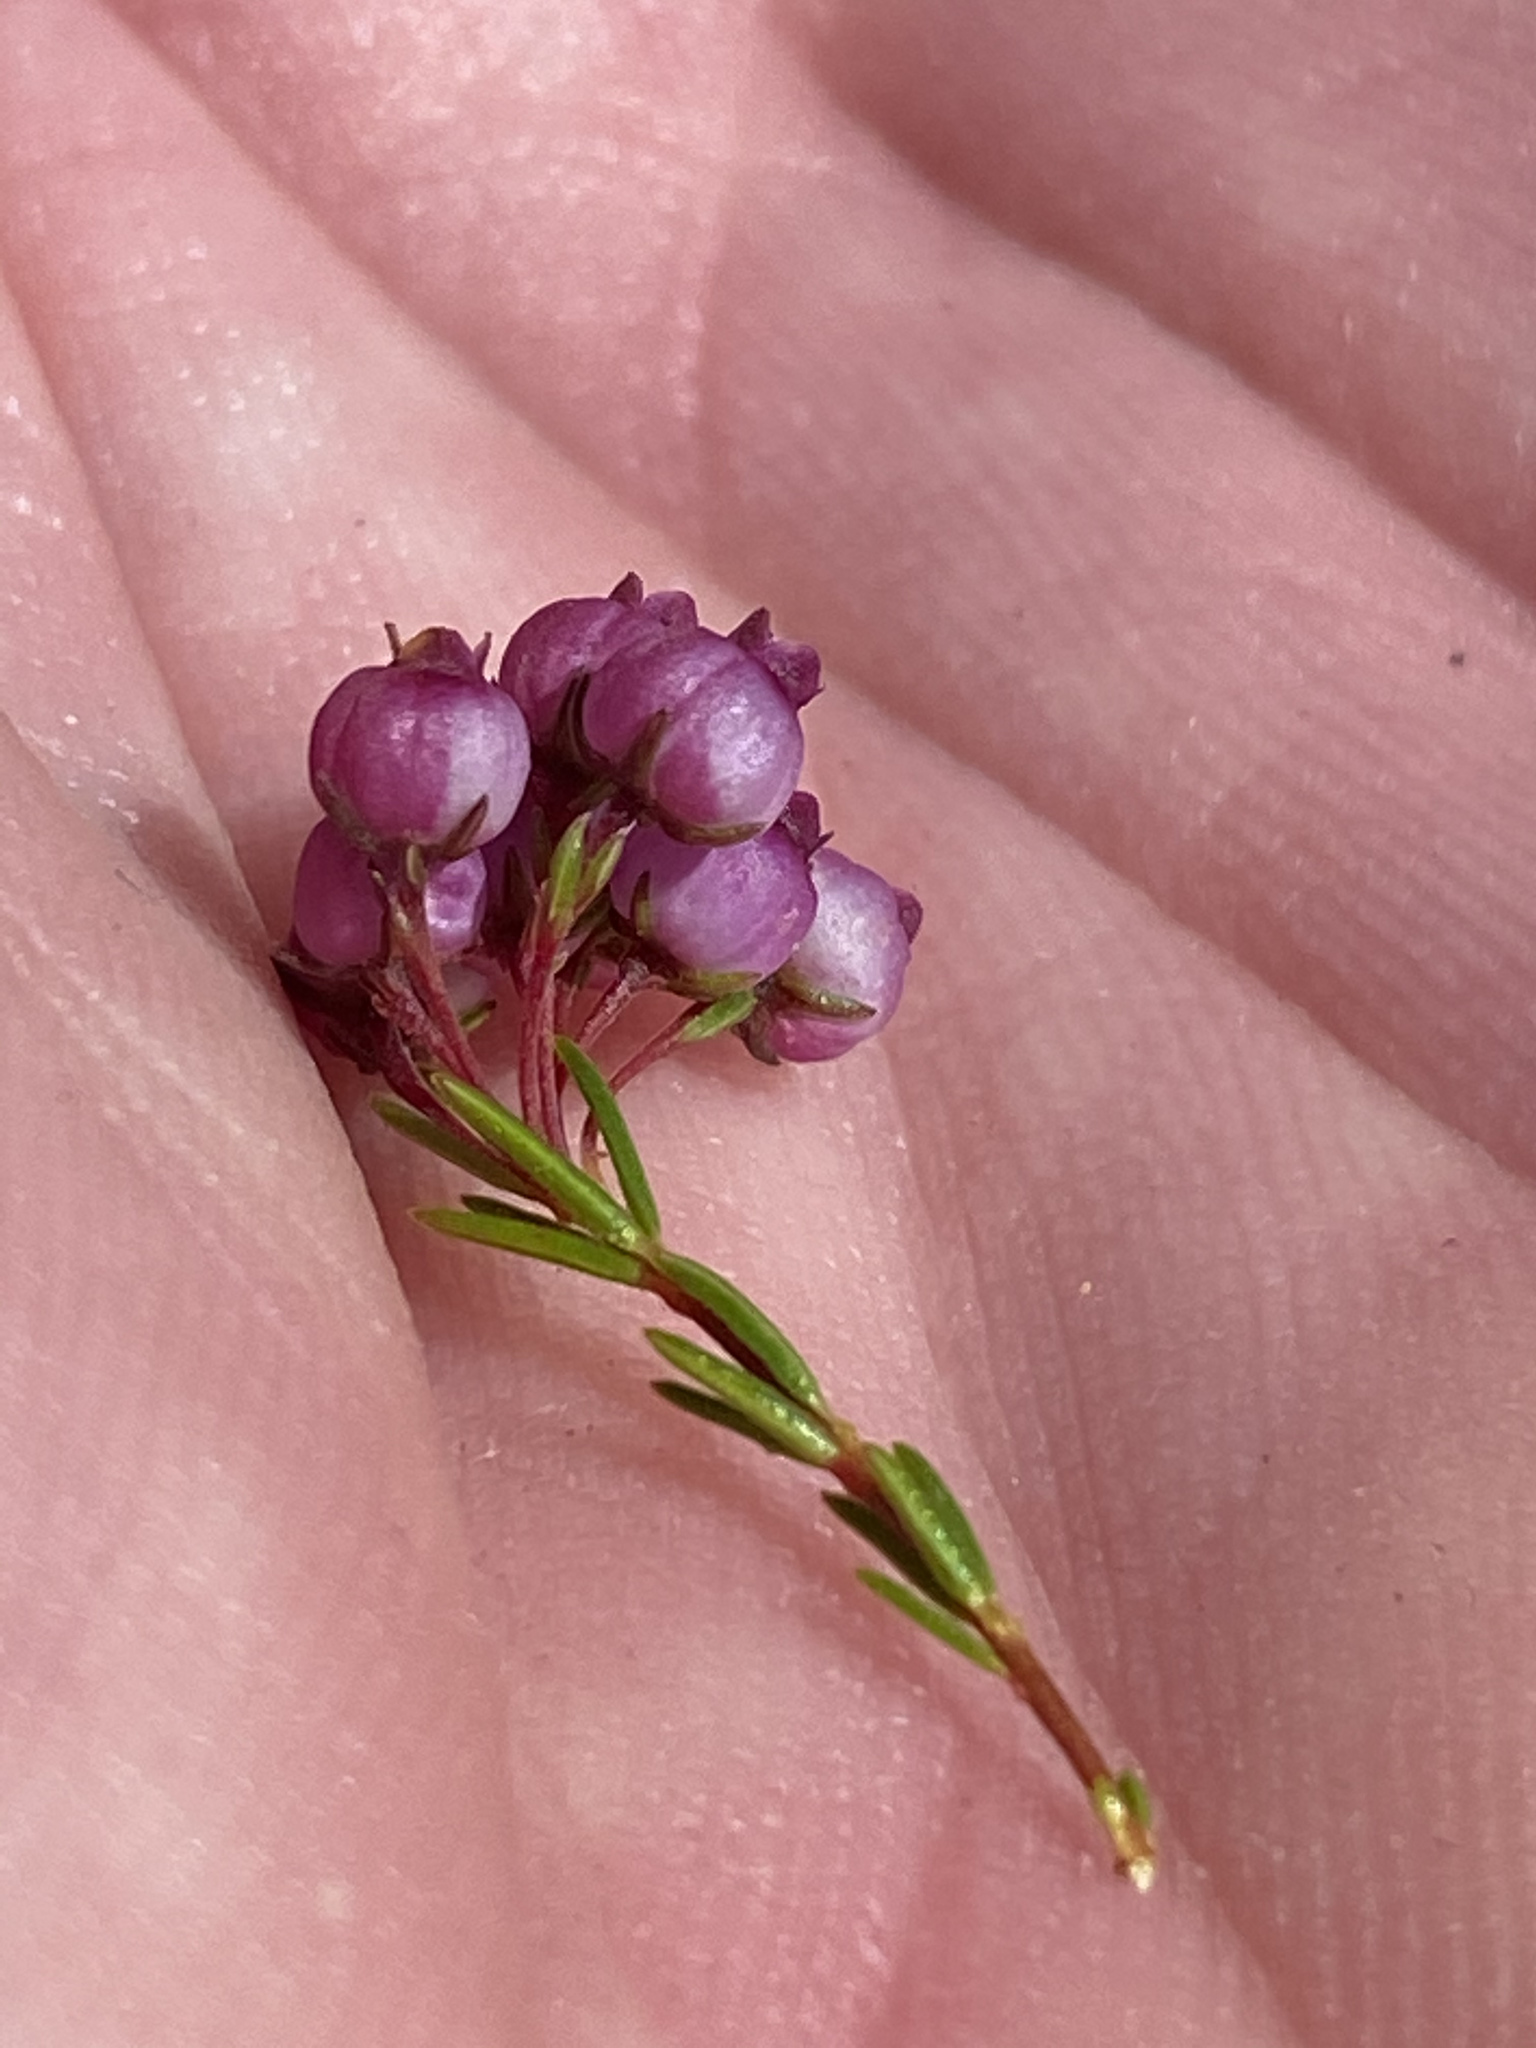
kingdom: Plantae
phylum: Tracheophyta
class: Magnoliopsida
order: Ericales
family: Ericaceae
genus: Erica
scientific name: Erica multumbellifera
